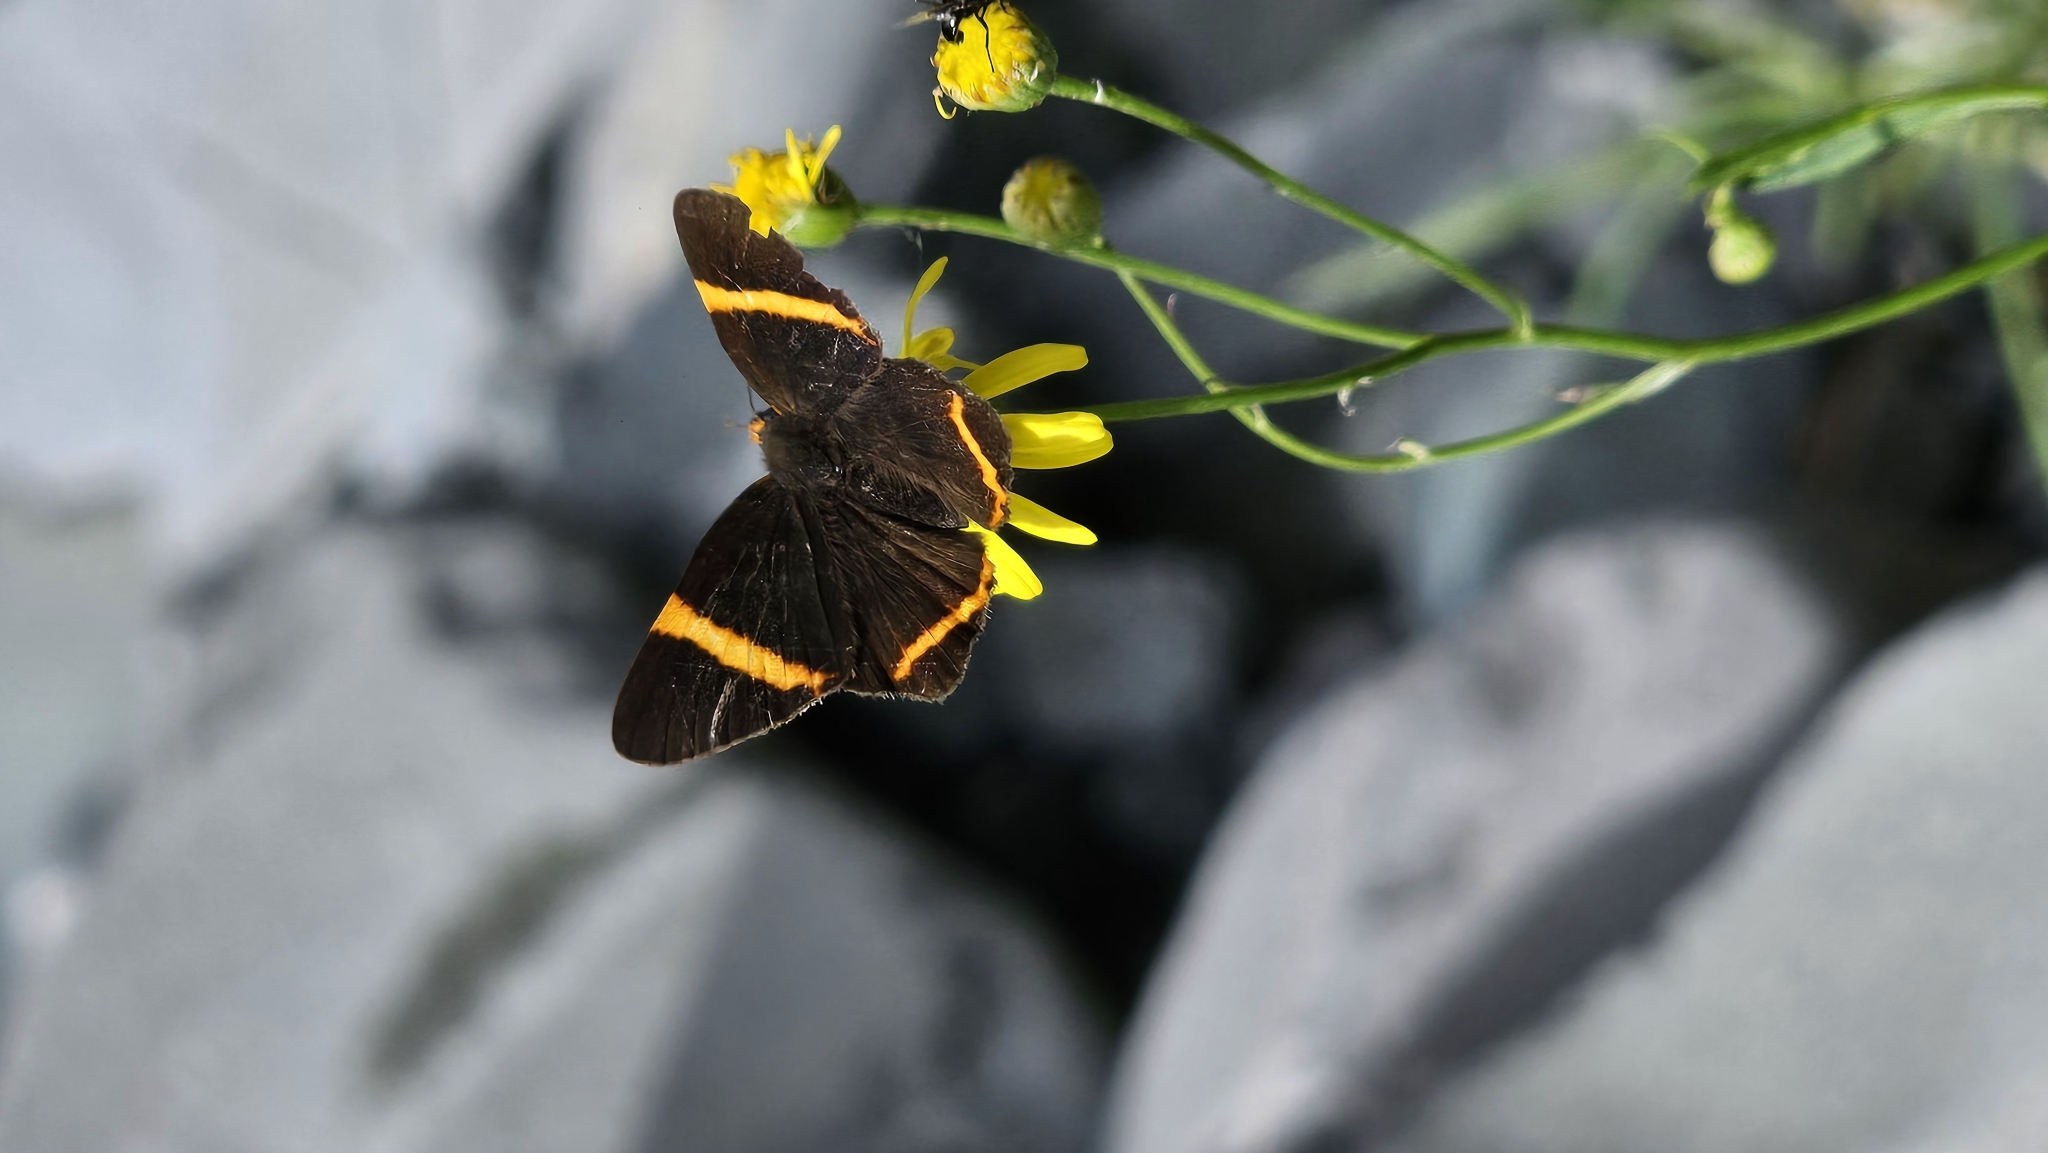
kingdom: Animalia
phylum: Arthropoda
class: Insecta
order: Lepidoptera
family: Riodinidae
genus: Riodina
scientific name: Riodina lysippoides
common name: Little dancer metalmark
